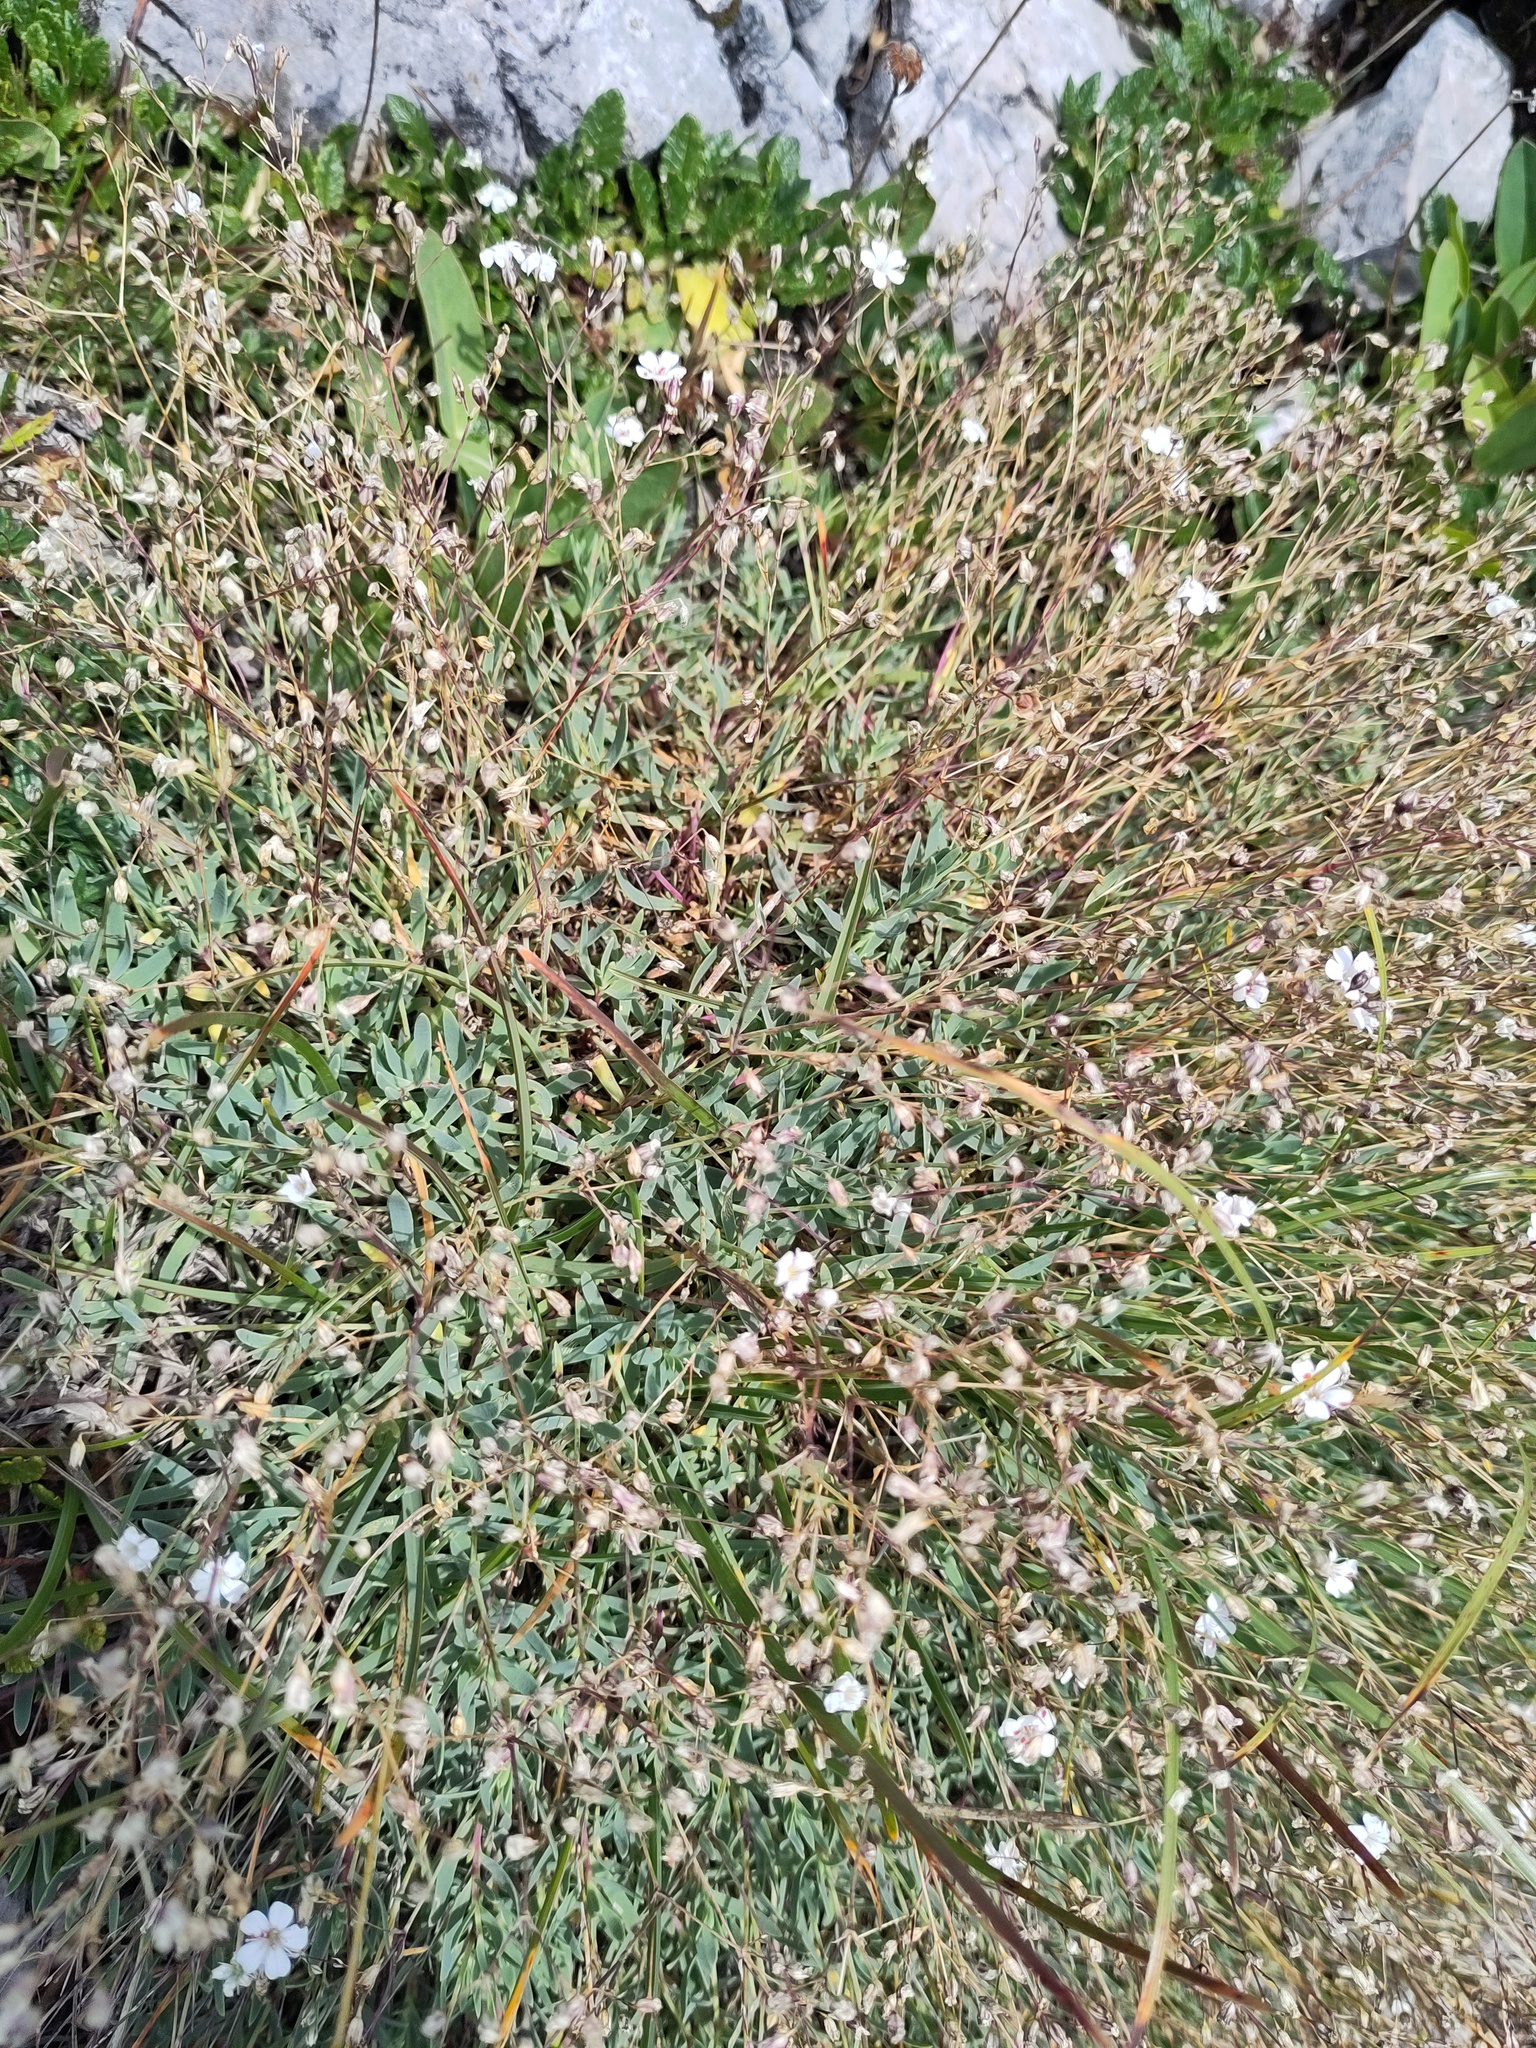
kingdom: Plantae
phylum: Tracheophyta
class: Magnoliopsida
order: Caryophyllales
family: Caryophyllaceae
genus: Gypsophila
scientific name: Gypsophila repens
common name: Creeping baby's-breath
